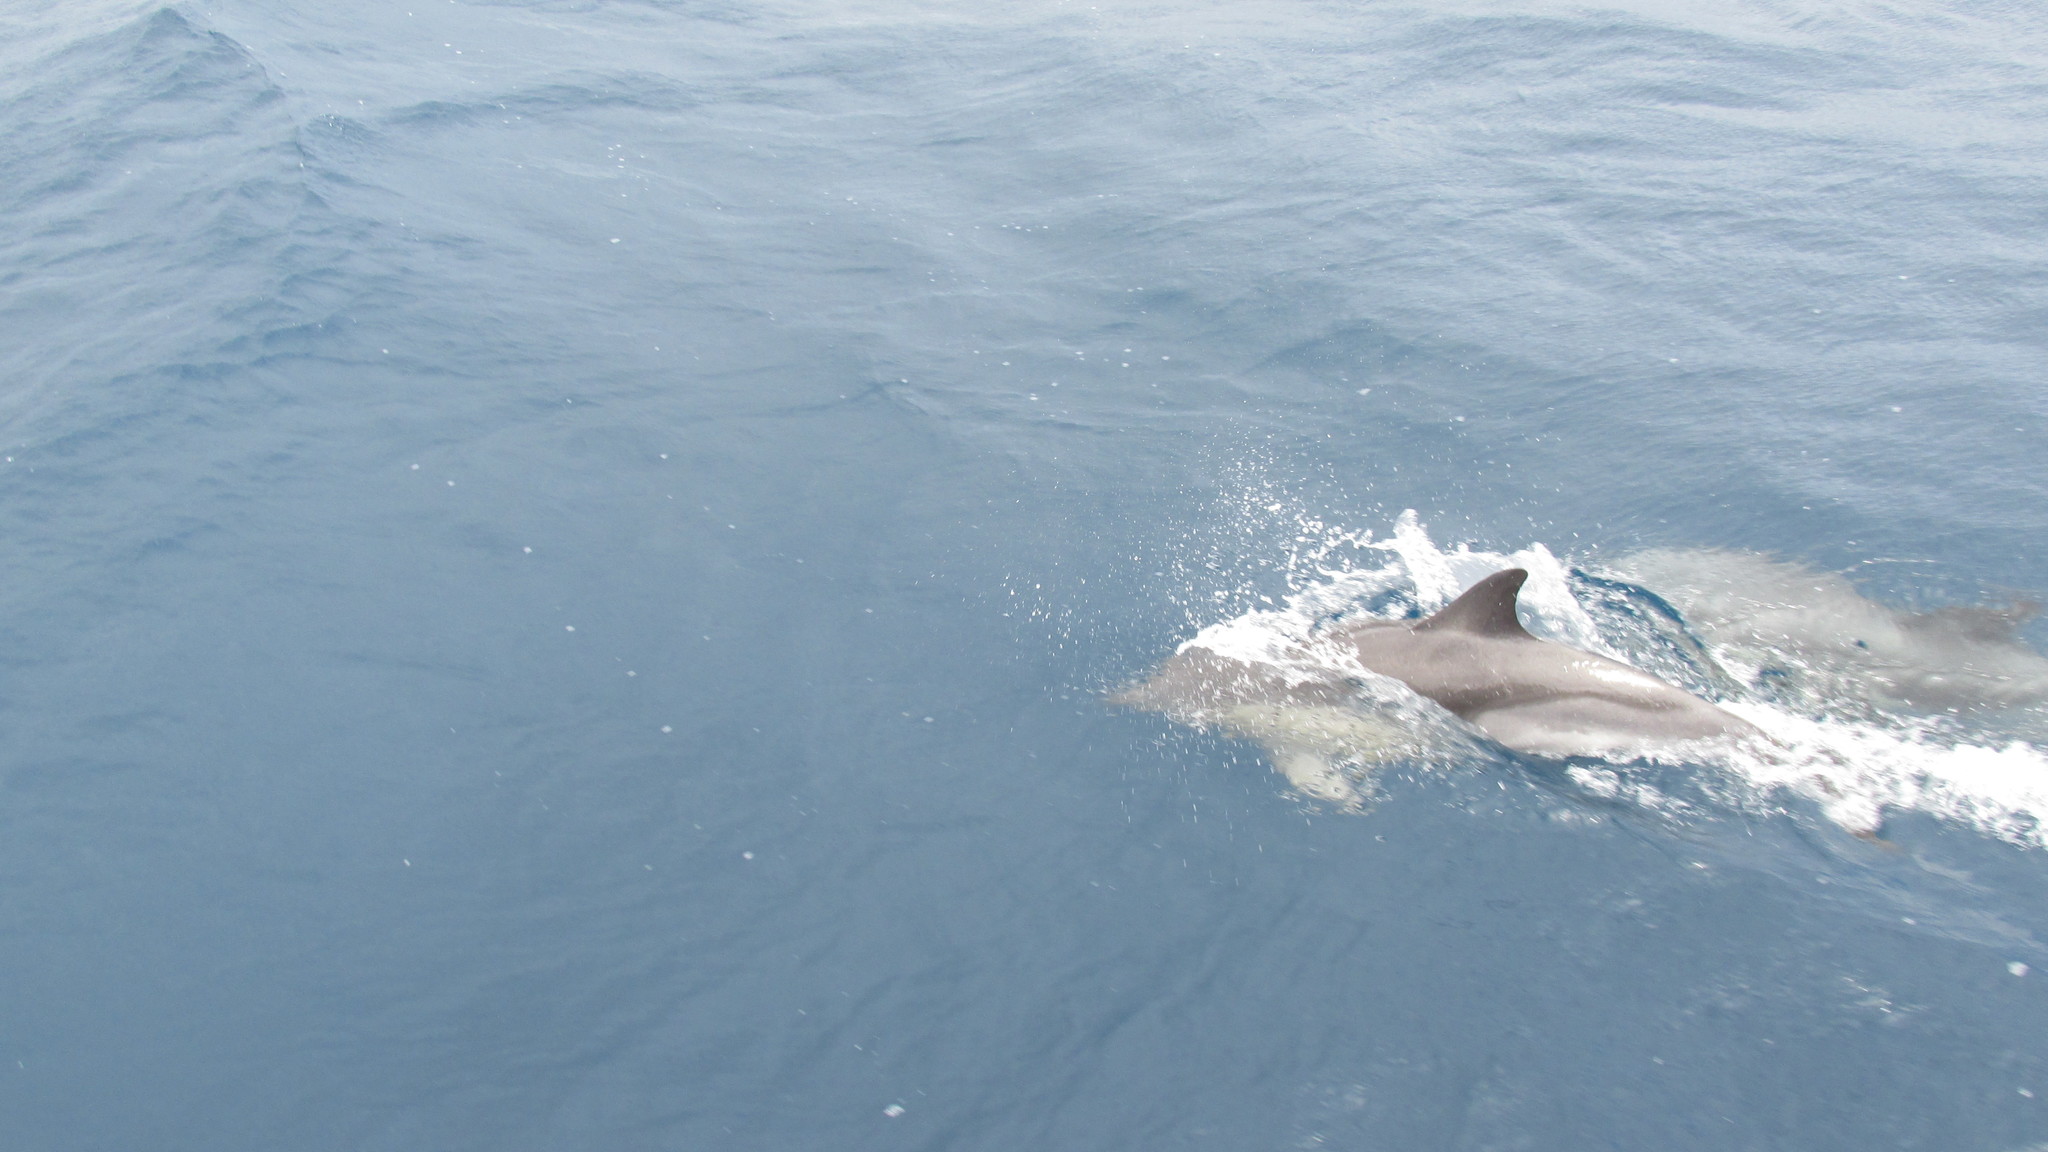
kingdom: Animalia
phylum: Chordata
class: Mammalia
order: Cetacea
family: Delphinidae
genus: Delphinus
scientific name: Delphinus delphis
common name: Common dolphin
